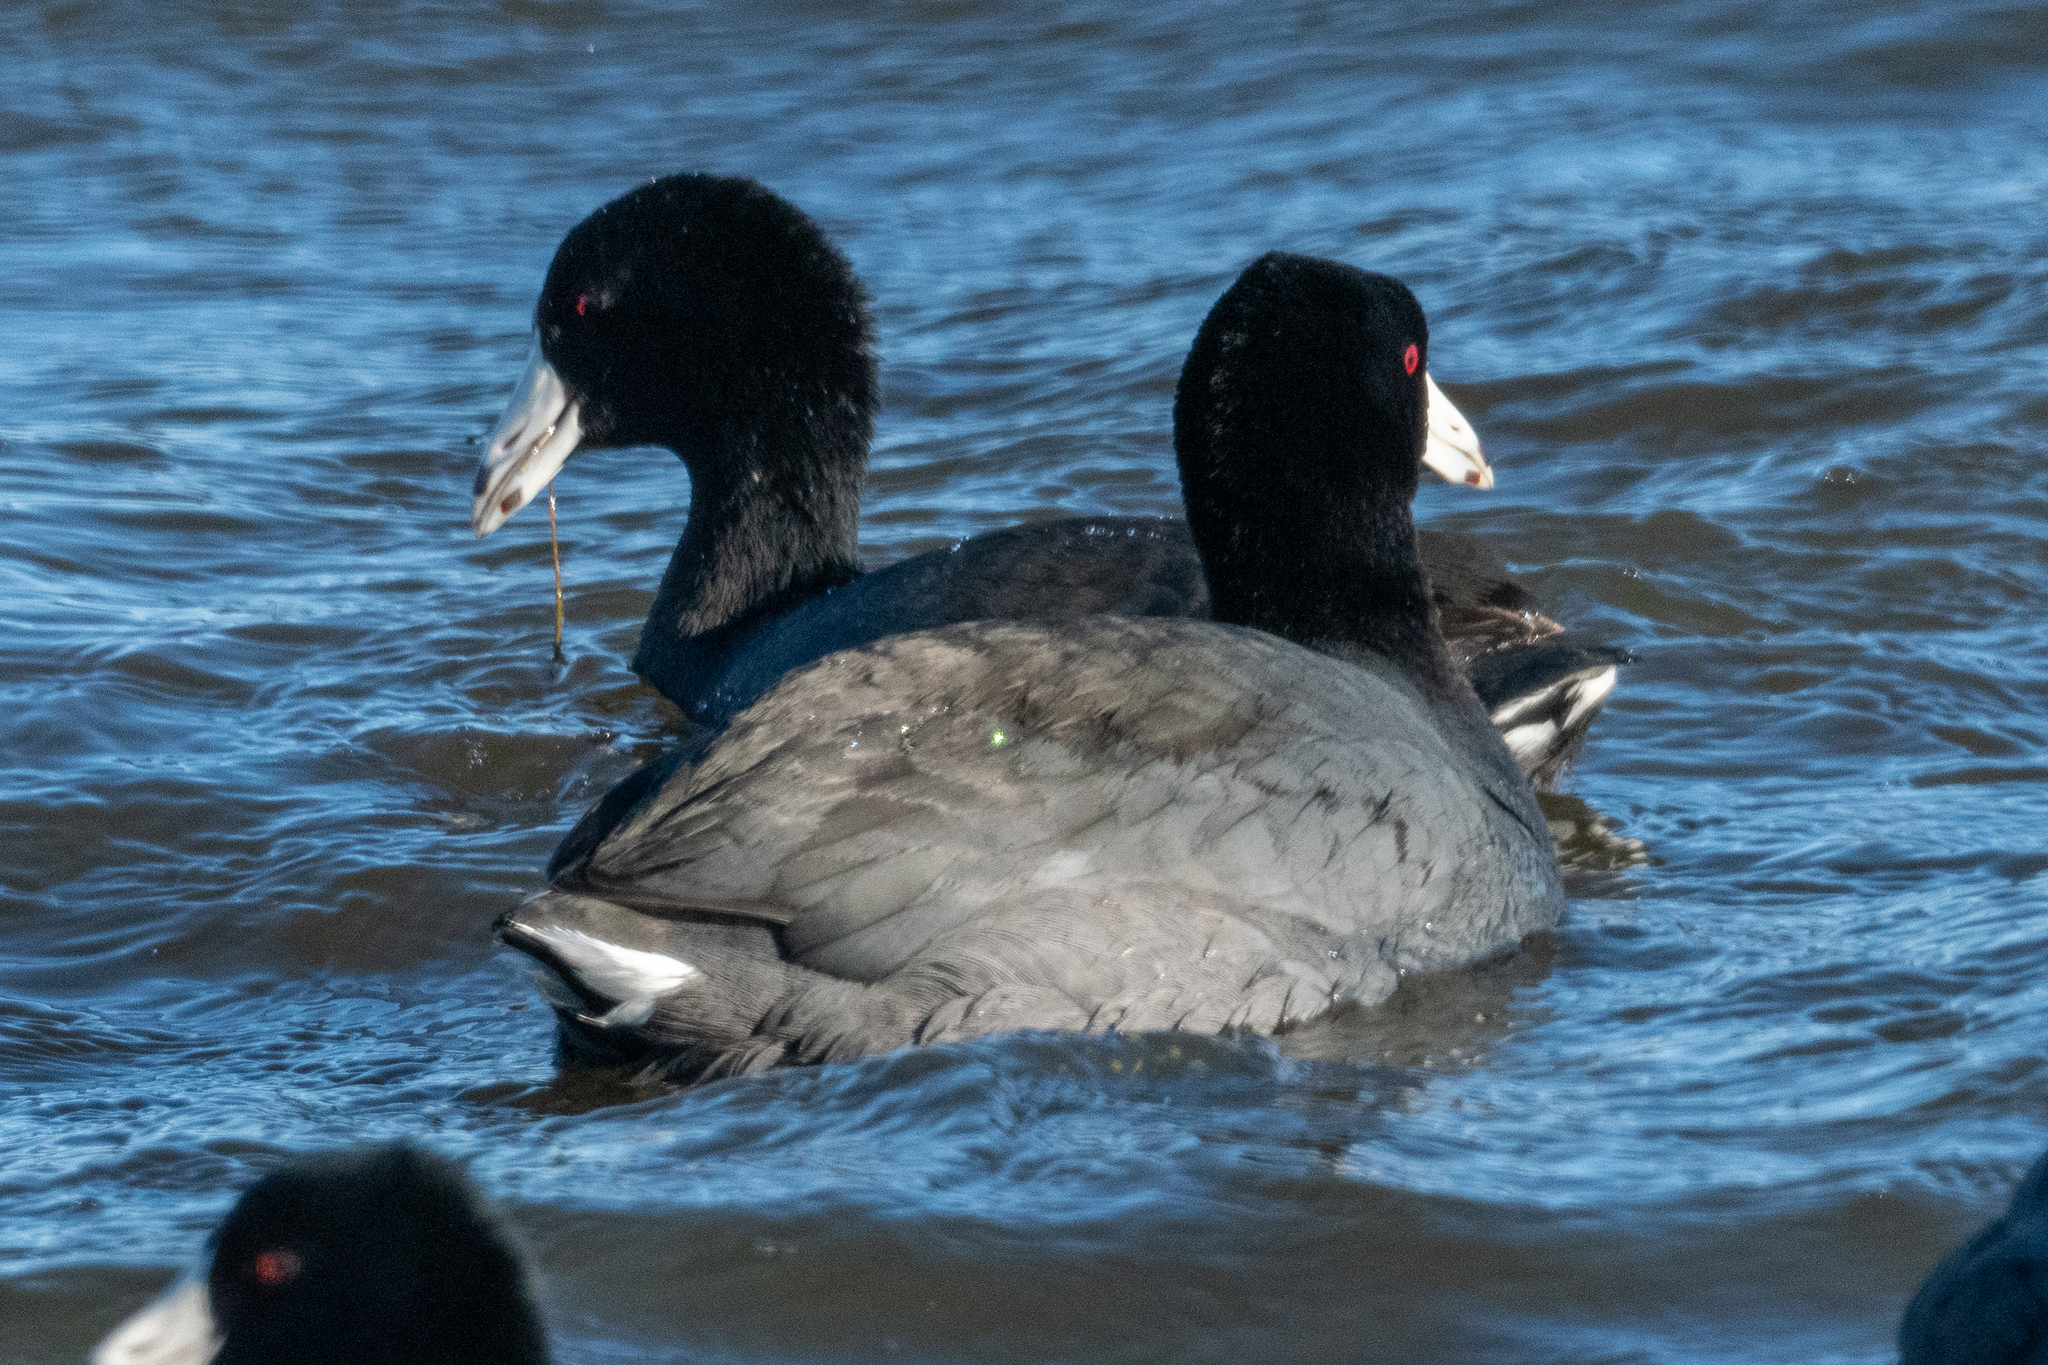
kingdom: Animalia
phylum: Chordata
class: Aves
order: Gruiformes
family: Rallidae
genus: Fulica
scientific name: Fulica americana
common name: American coot
